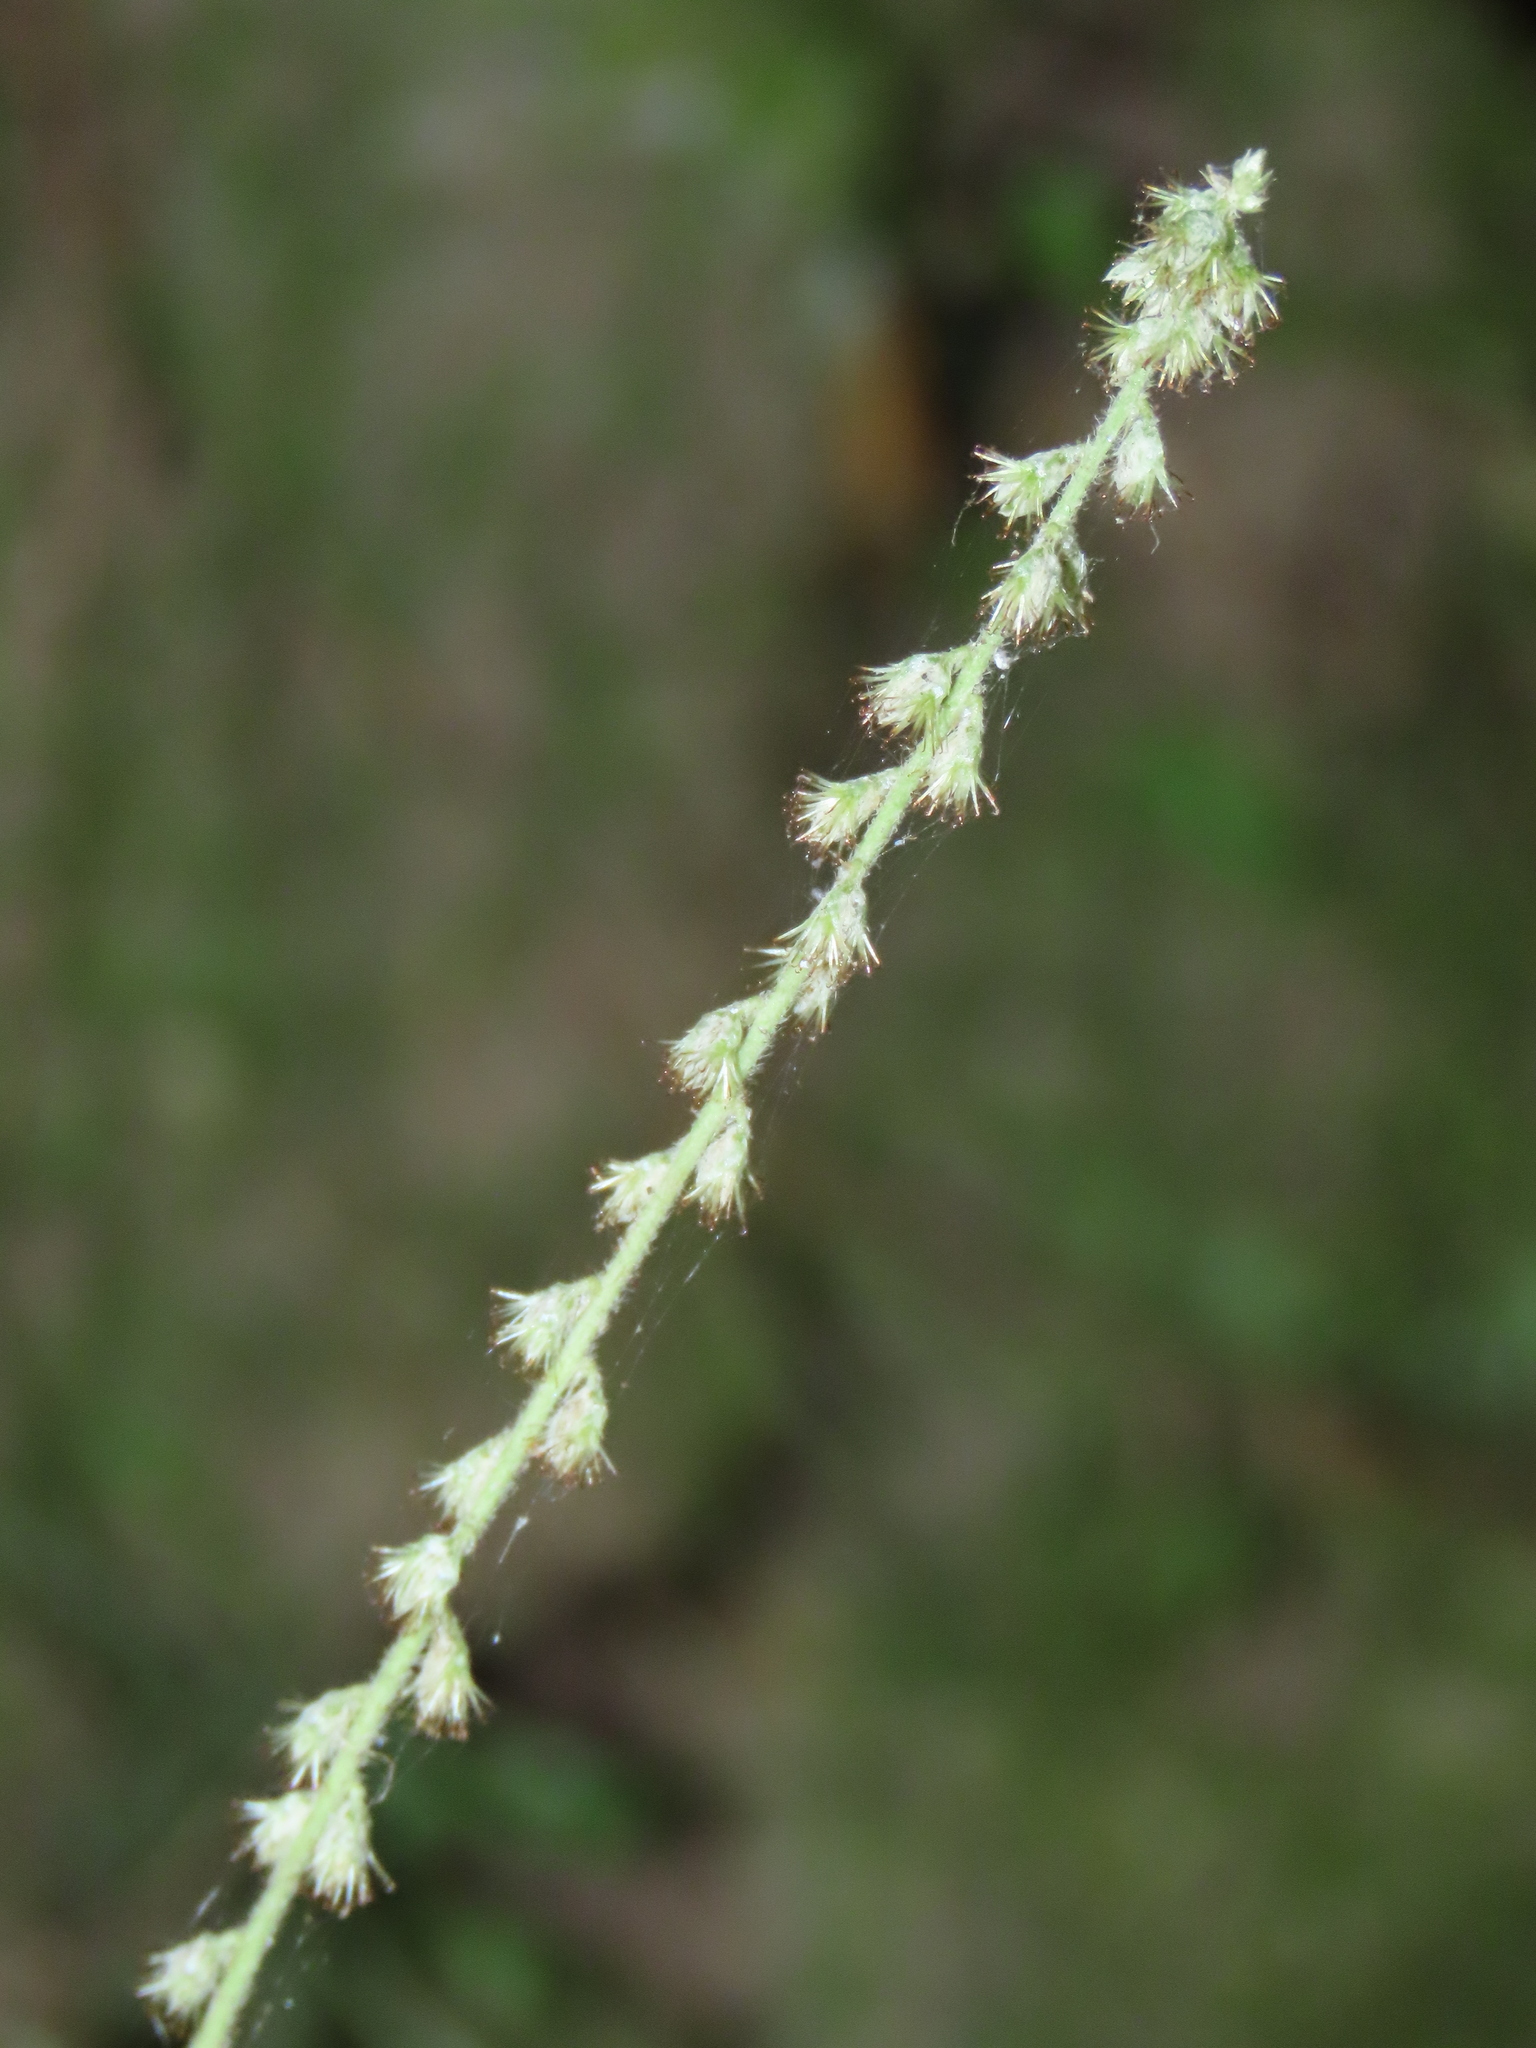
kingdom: Plantae
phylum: Tracheophyta
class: Magnoliopsida
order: Caryophyllales
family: Amaranthaceae
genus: Cyathula
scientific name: Cyathula prostrata
